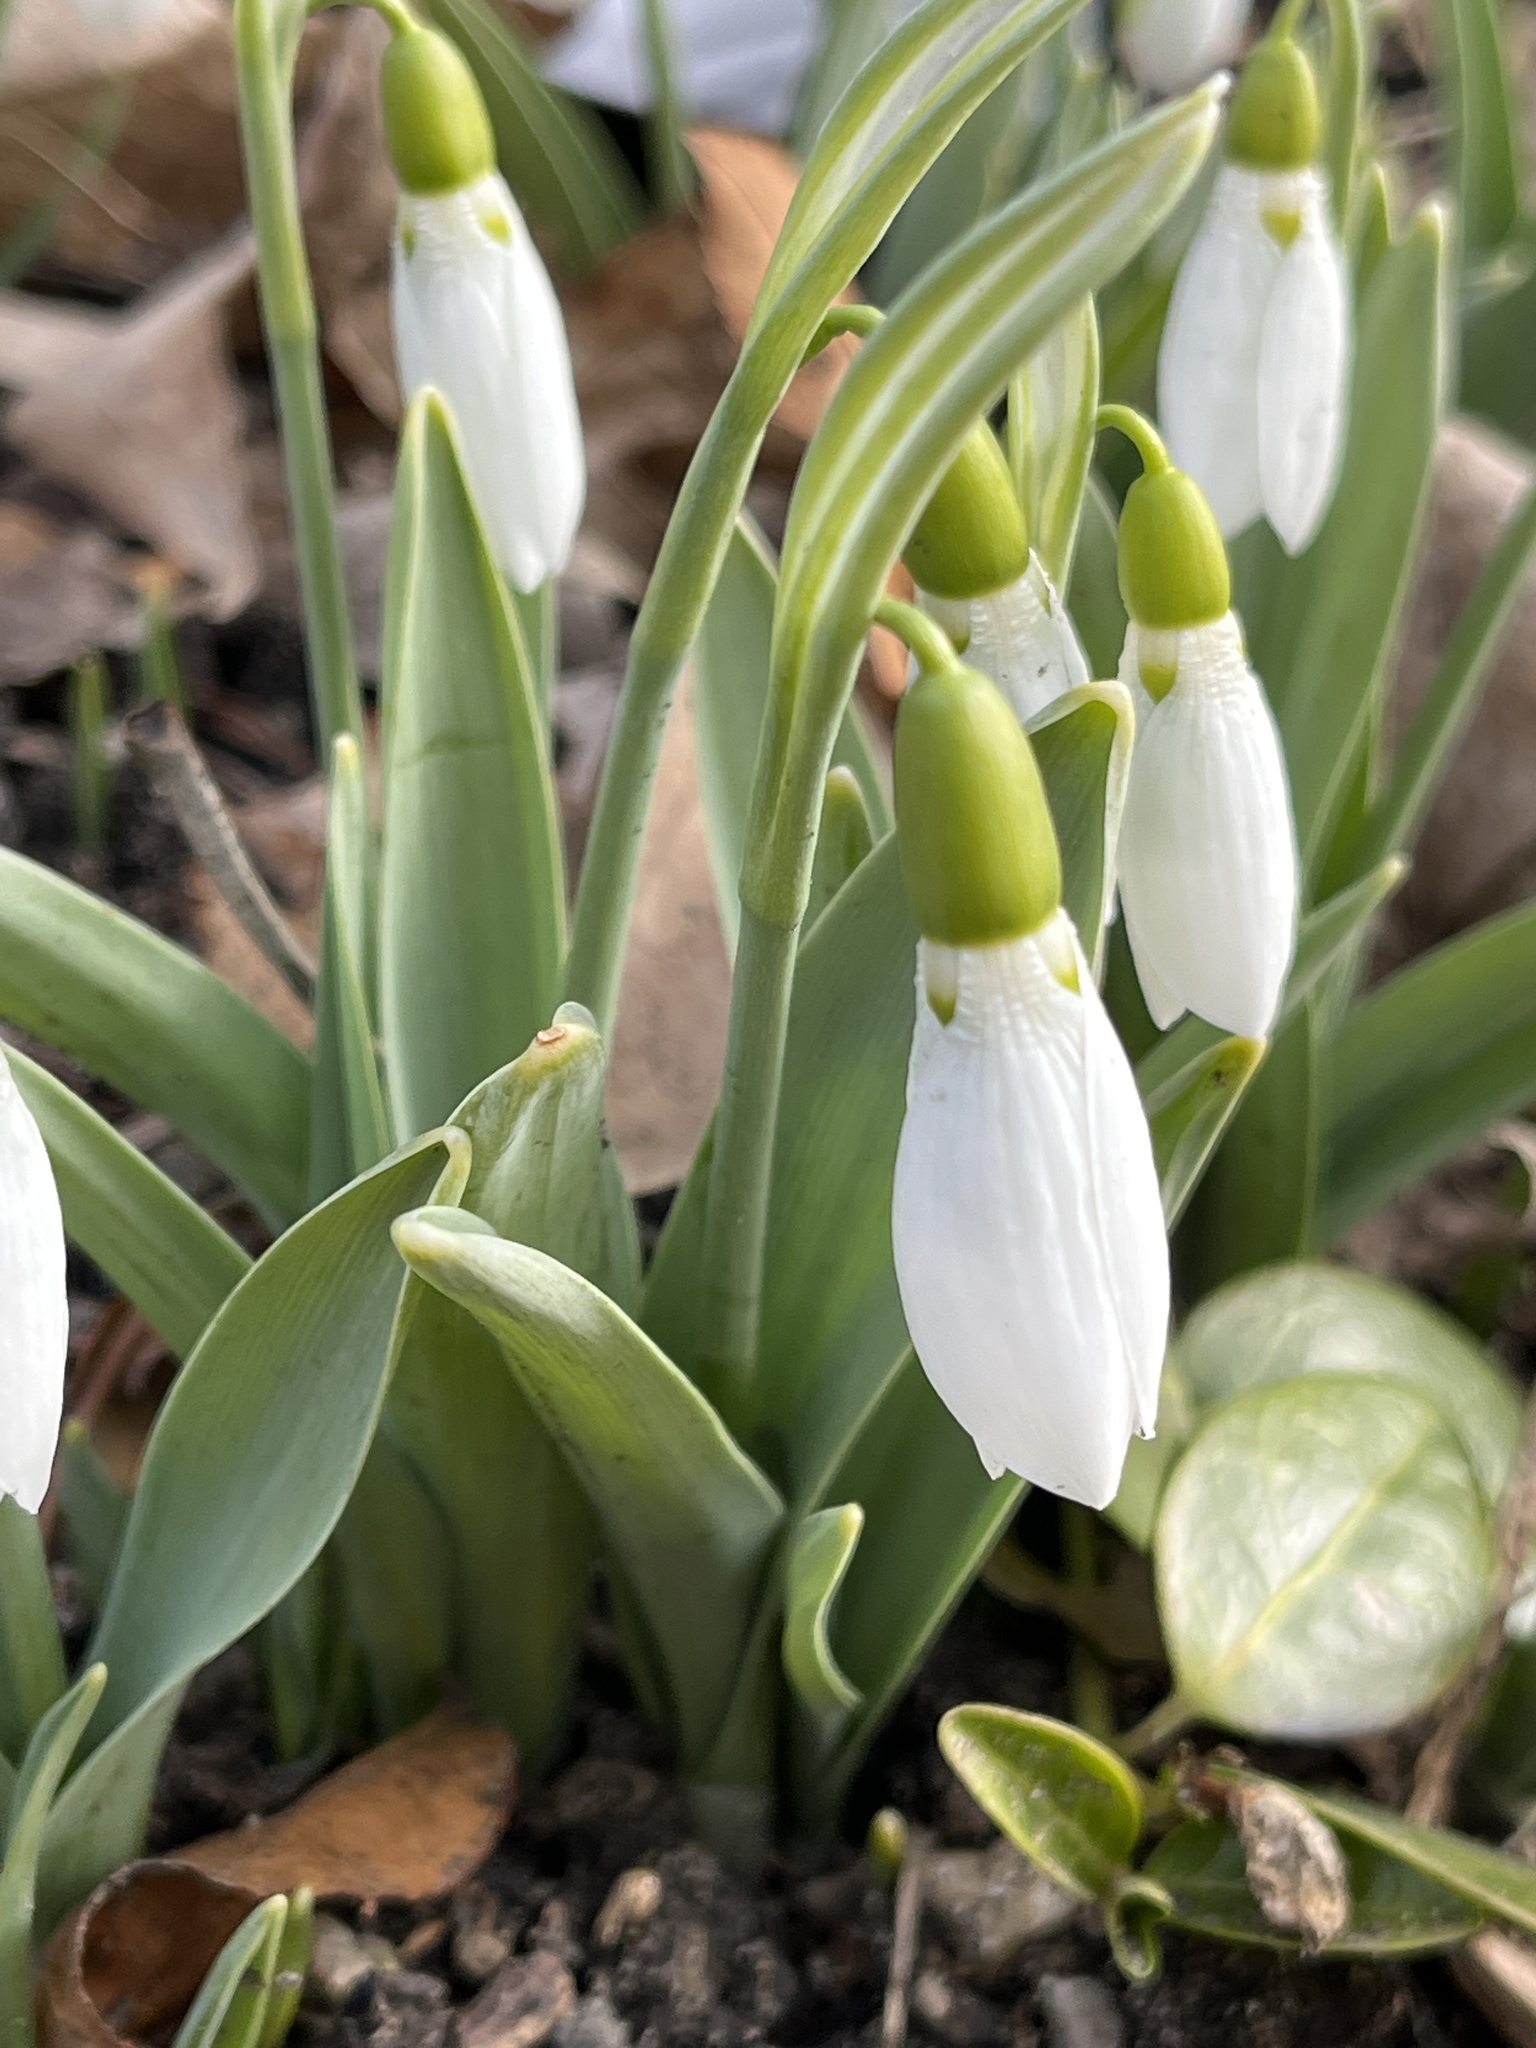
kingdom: Plantae
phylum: Tracheophyta
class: Liliopsida
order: Asparagales
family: Amaryllidaceae
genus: Galanthus
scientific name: Galanthus elwesii
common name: Greater snowdrop
